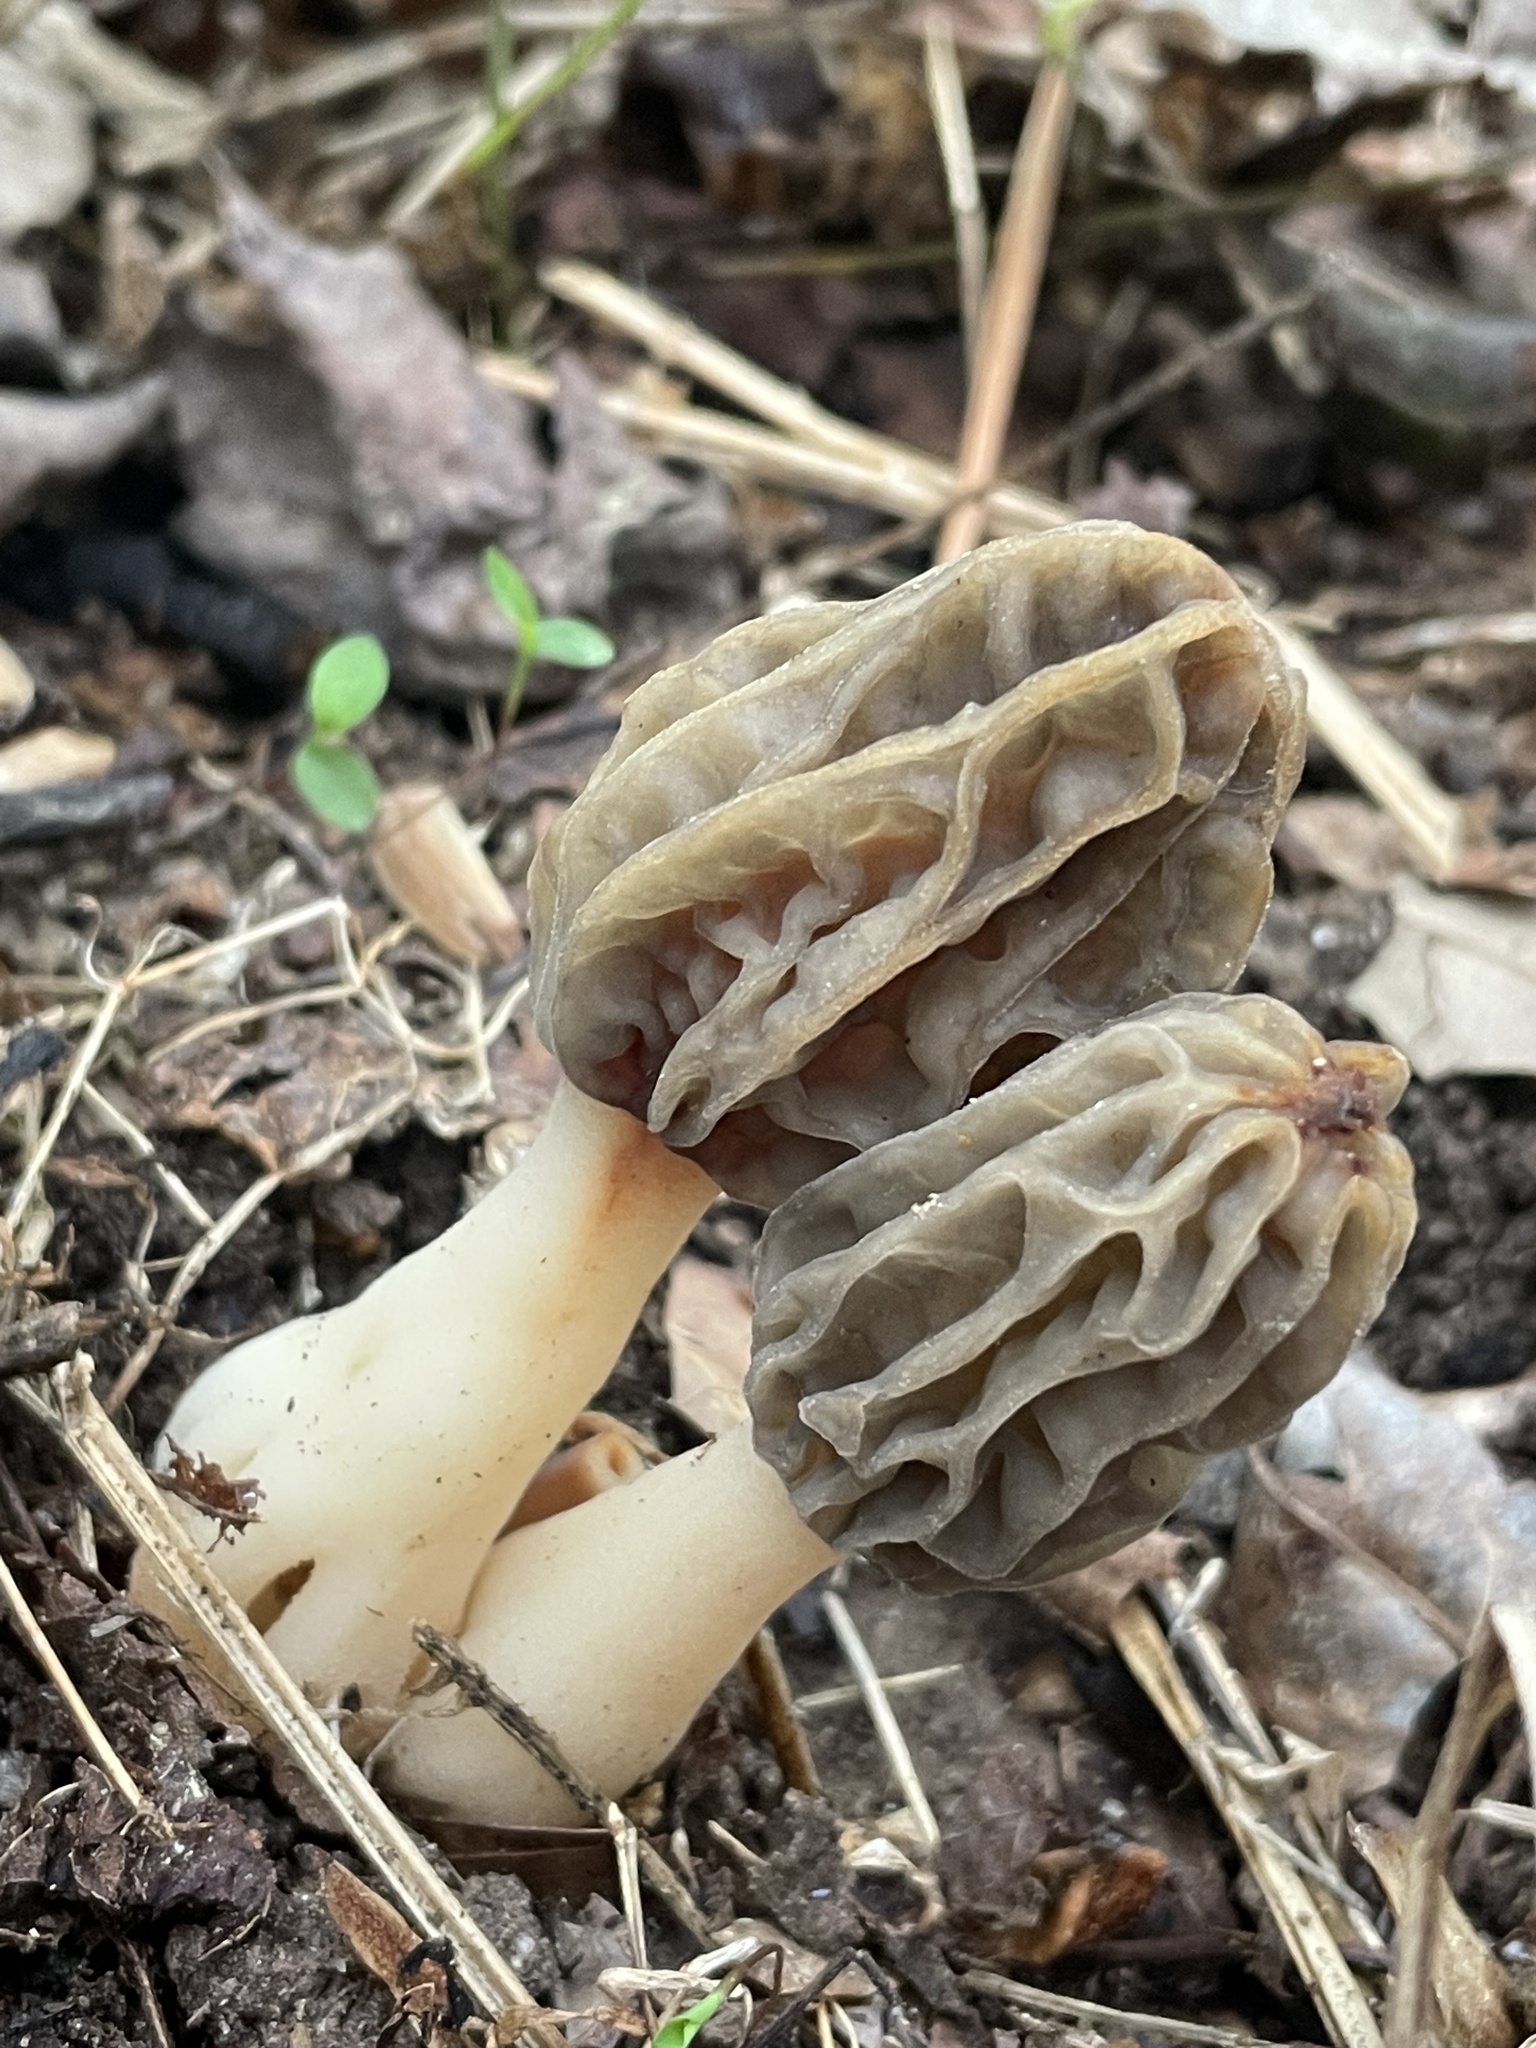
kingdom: Fungi
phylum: Ascomycota
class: Pezizomycetes
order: Pezizales
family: Morchellaceae
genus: Morchella
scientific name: Morchella diminutiva
